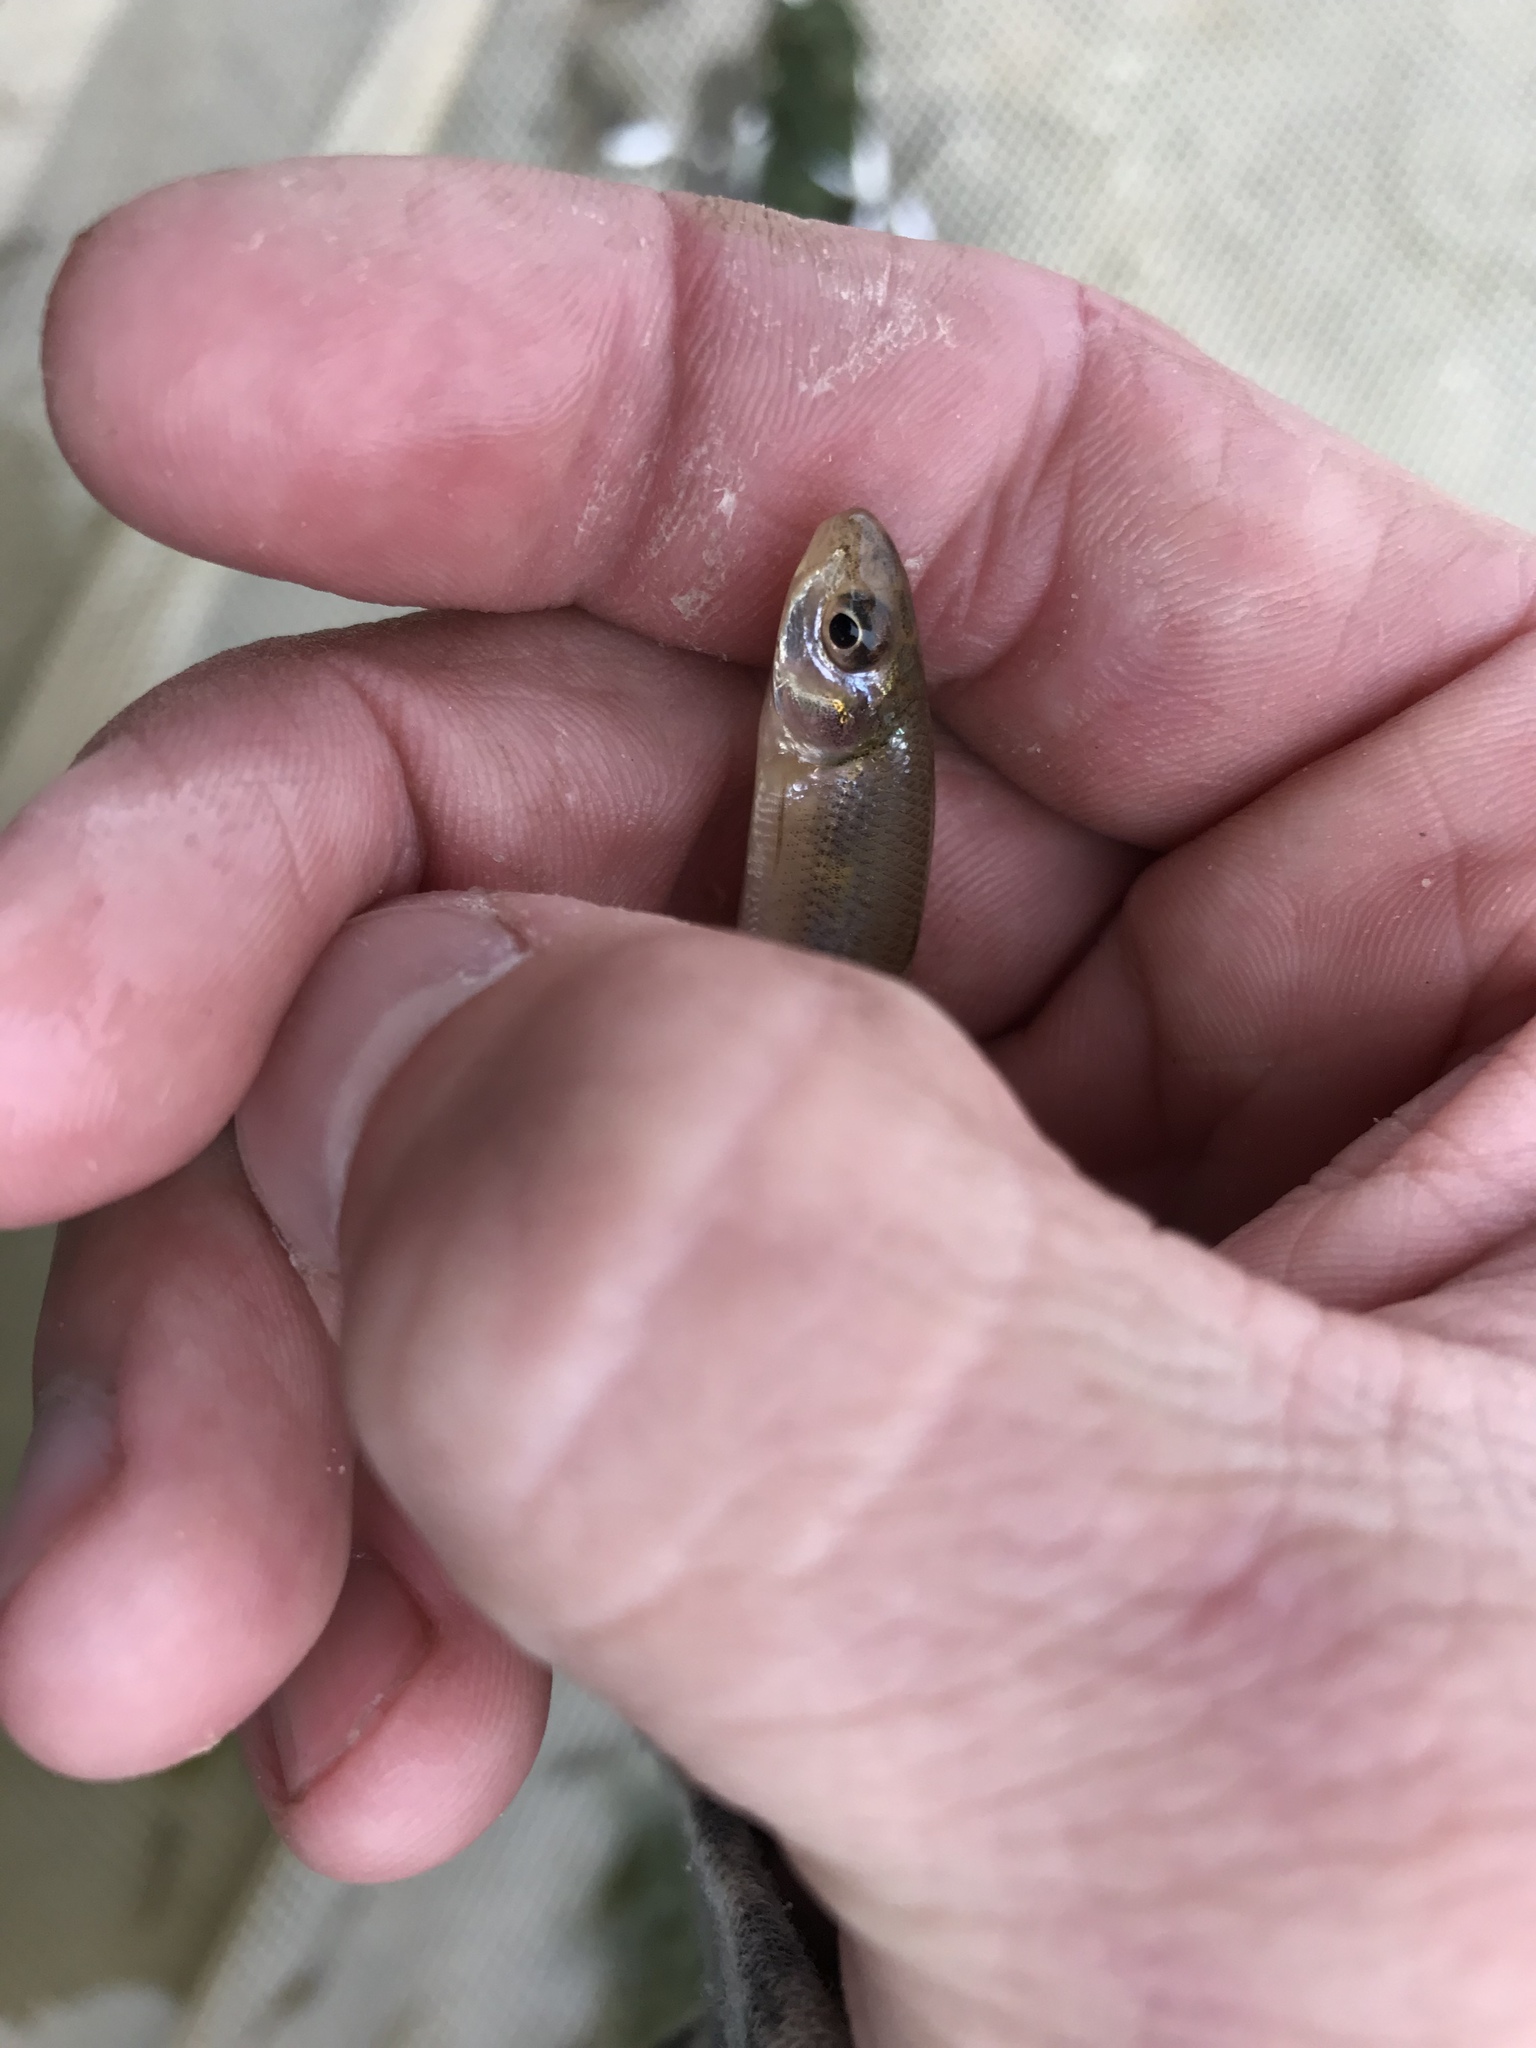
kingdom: Animalia
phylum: Chordata
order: Cypriniformes
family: Cyprinidae
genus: Pimephales
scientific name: Pimephales vigilax
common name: Bullhead minnow
